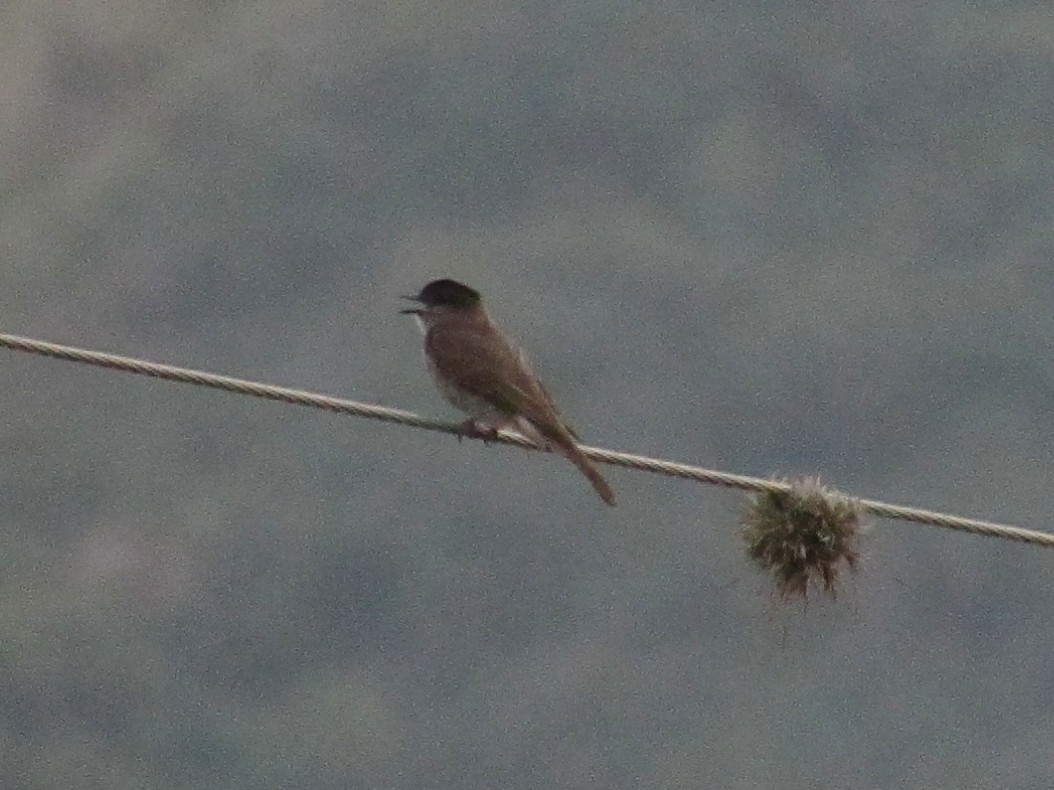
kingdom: Animalia
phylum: Chordata
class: Aves
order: Passeriformes
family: Tyrannidae
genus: Empidonomus
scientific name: Empidonomus aurantioatrocristatus
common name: Crowned slaty flycatcher
